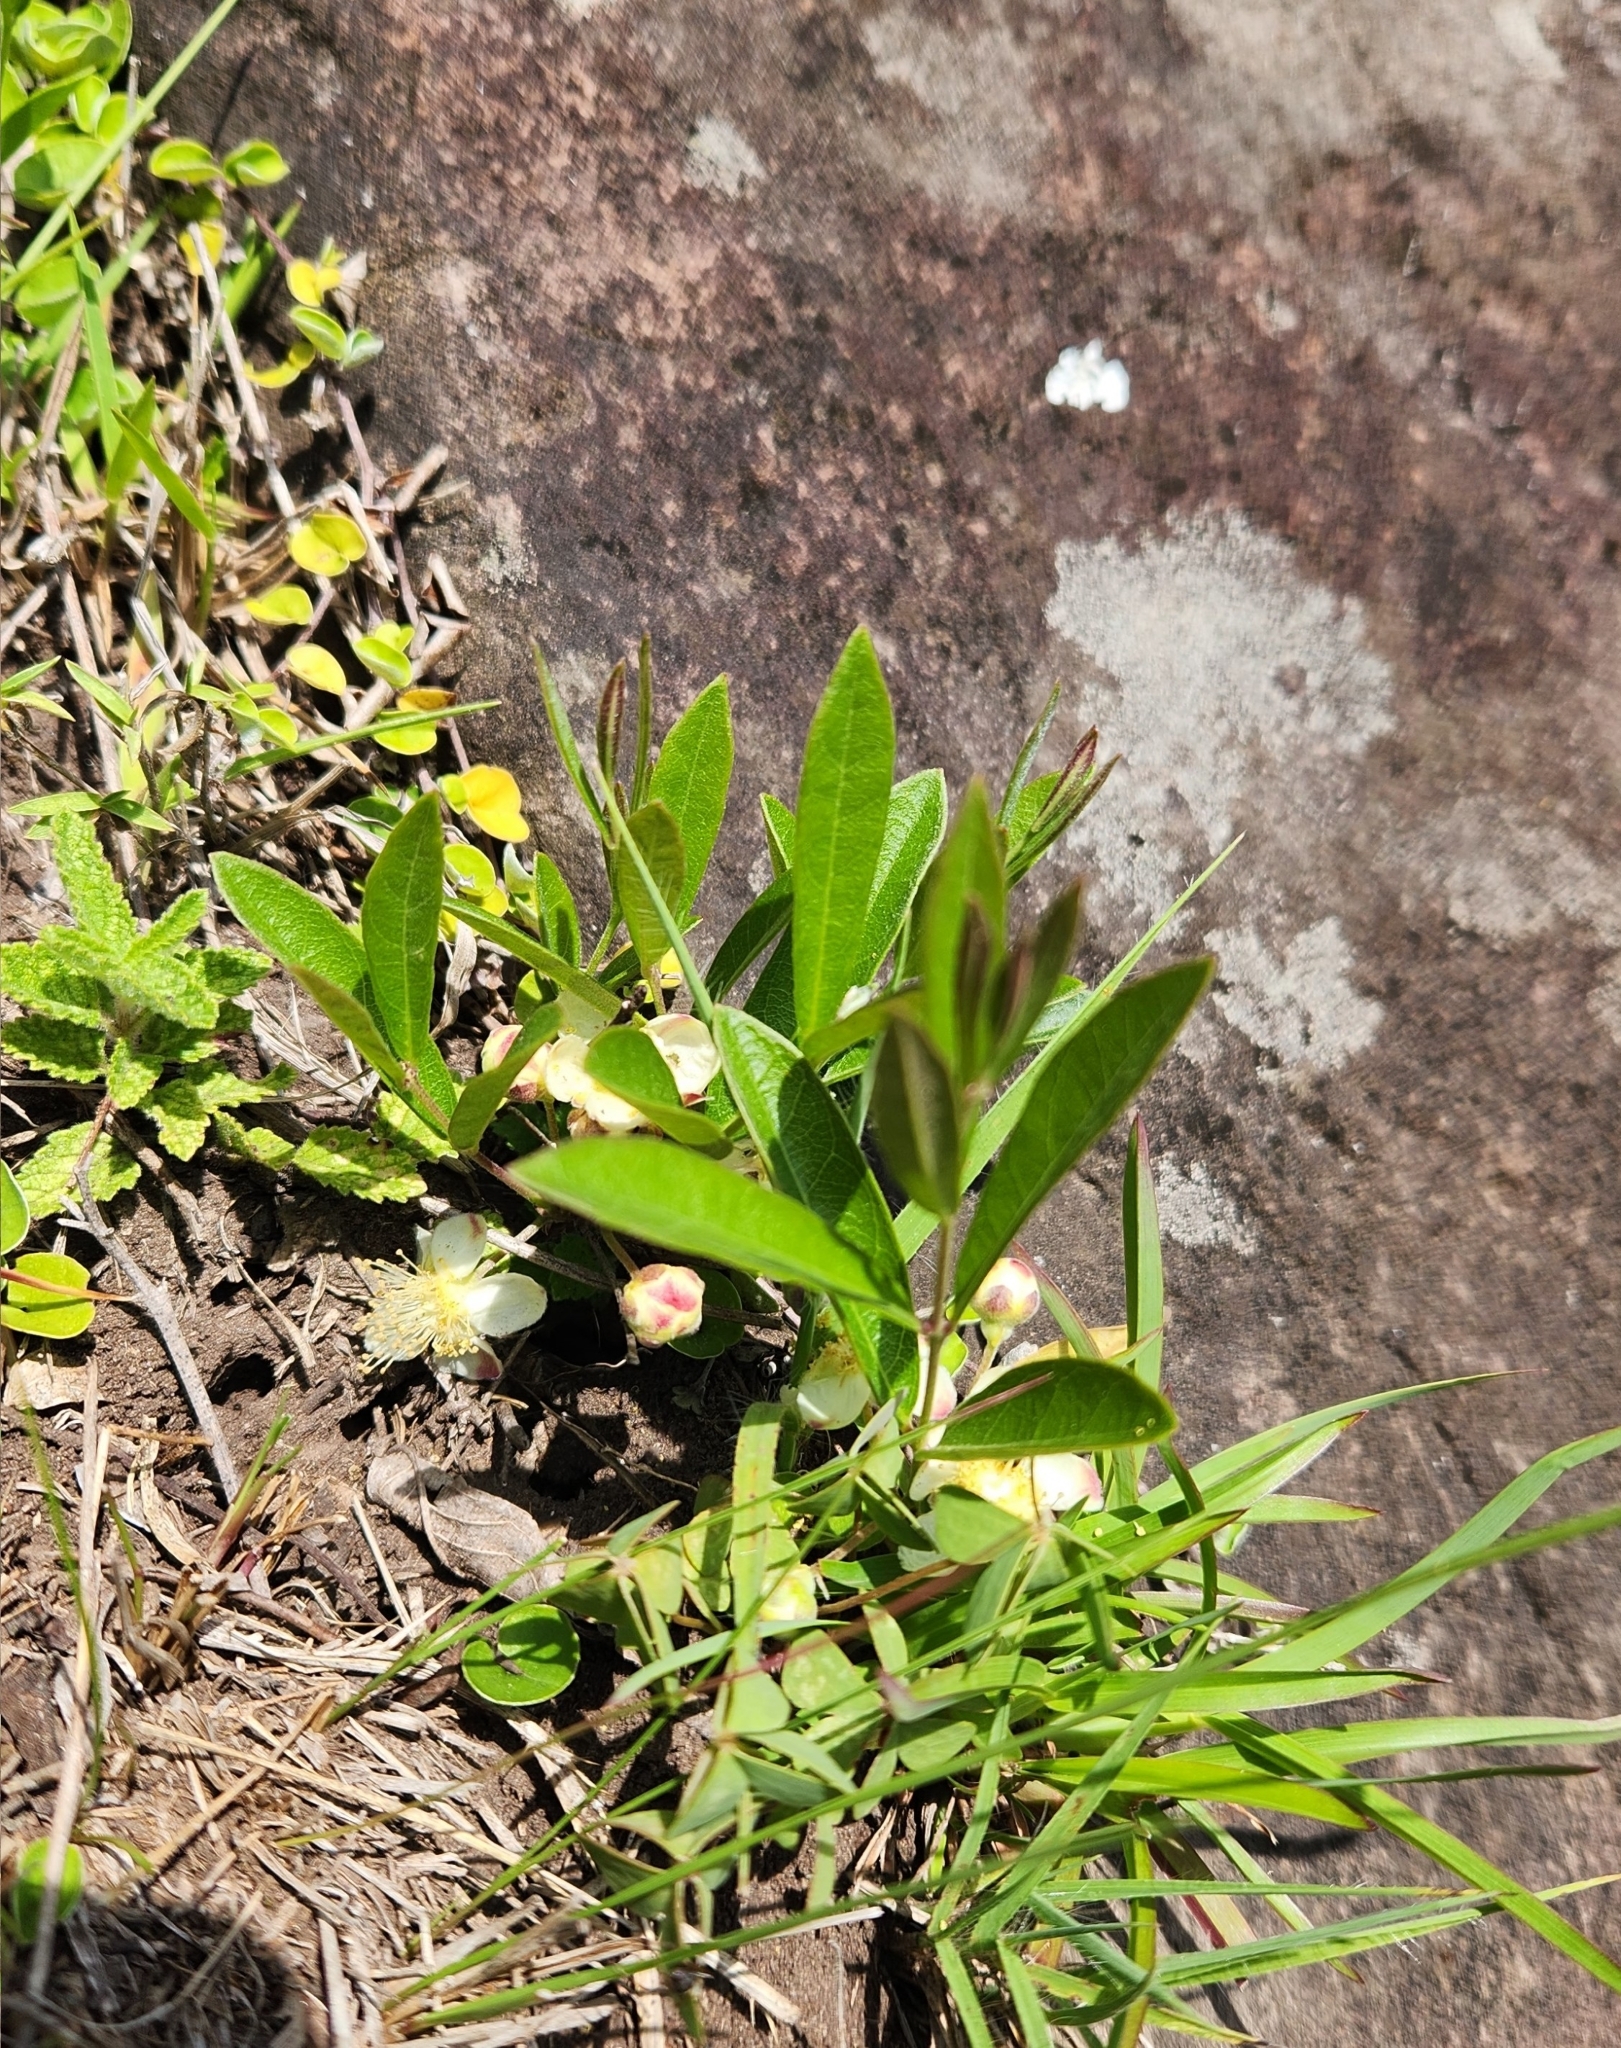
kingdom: Plantae
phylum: Tracheophyta
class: Magnoliopsida
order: Myrtales
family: Myrtaceae
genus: Eugenia
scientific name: Eugenia anomala
